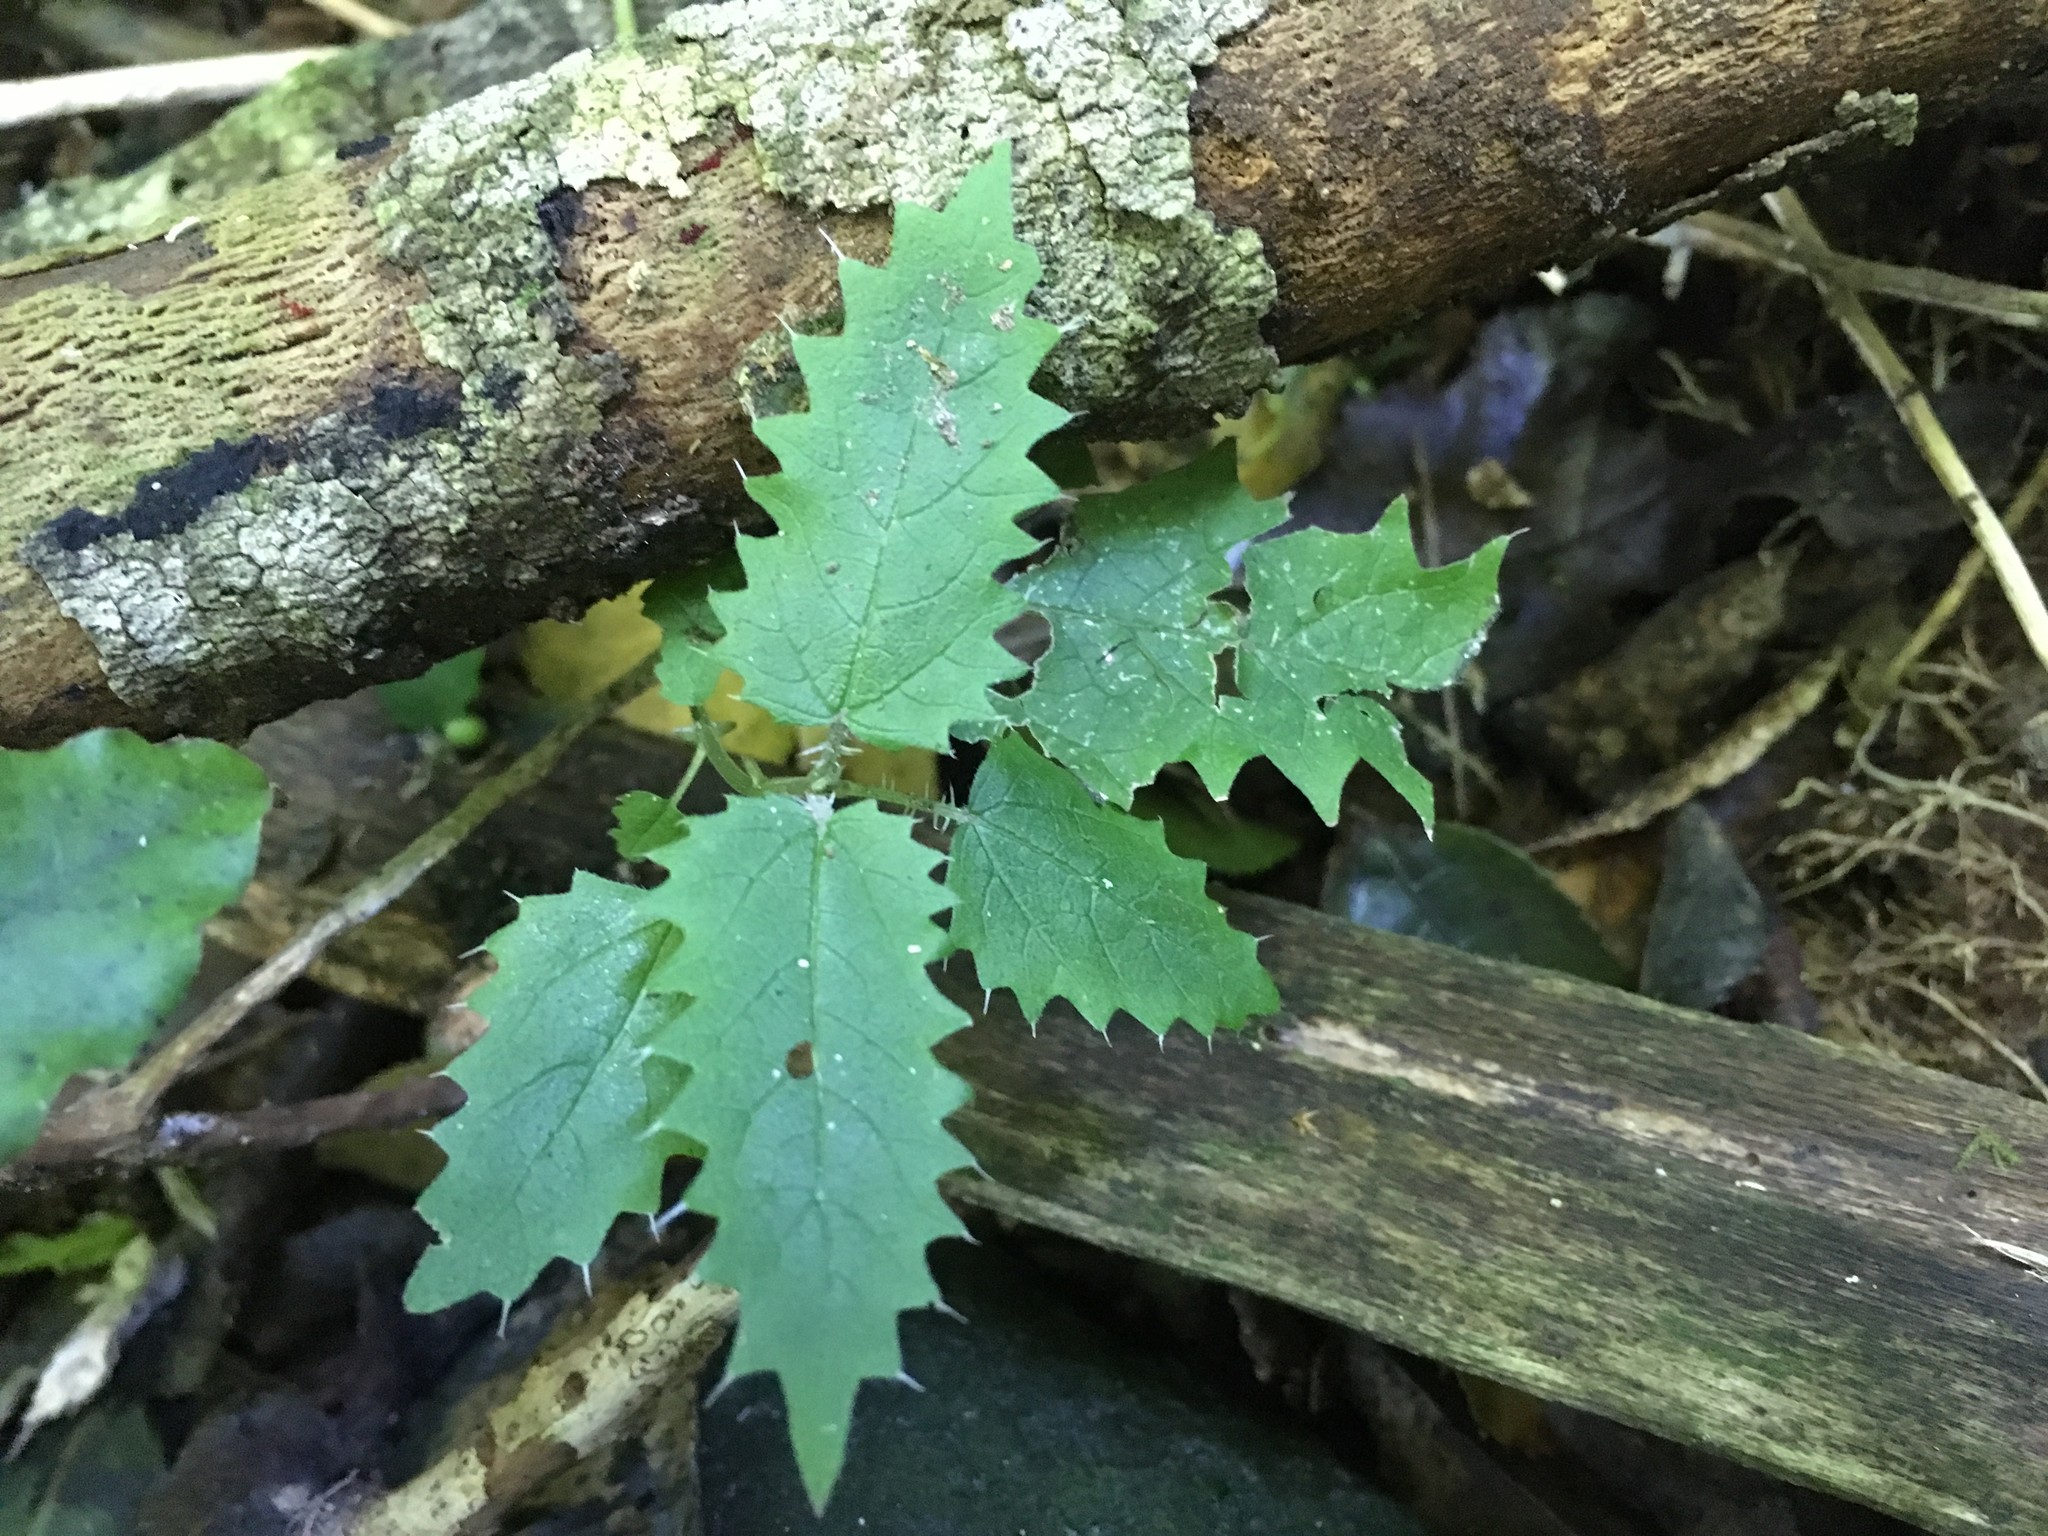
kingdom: Plantae
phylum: Tracheophyta
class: Magnoliopsida
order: Rosales
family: Urticaceae
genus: Urtica
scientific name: Urtica ferox
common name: Tree nettle
